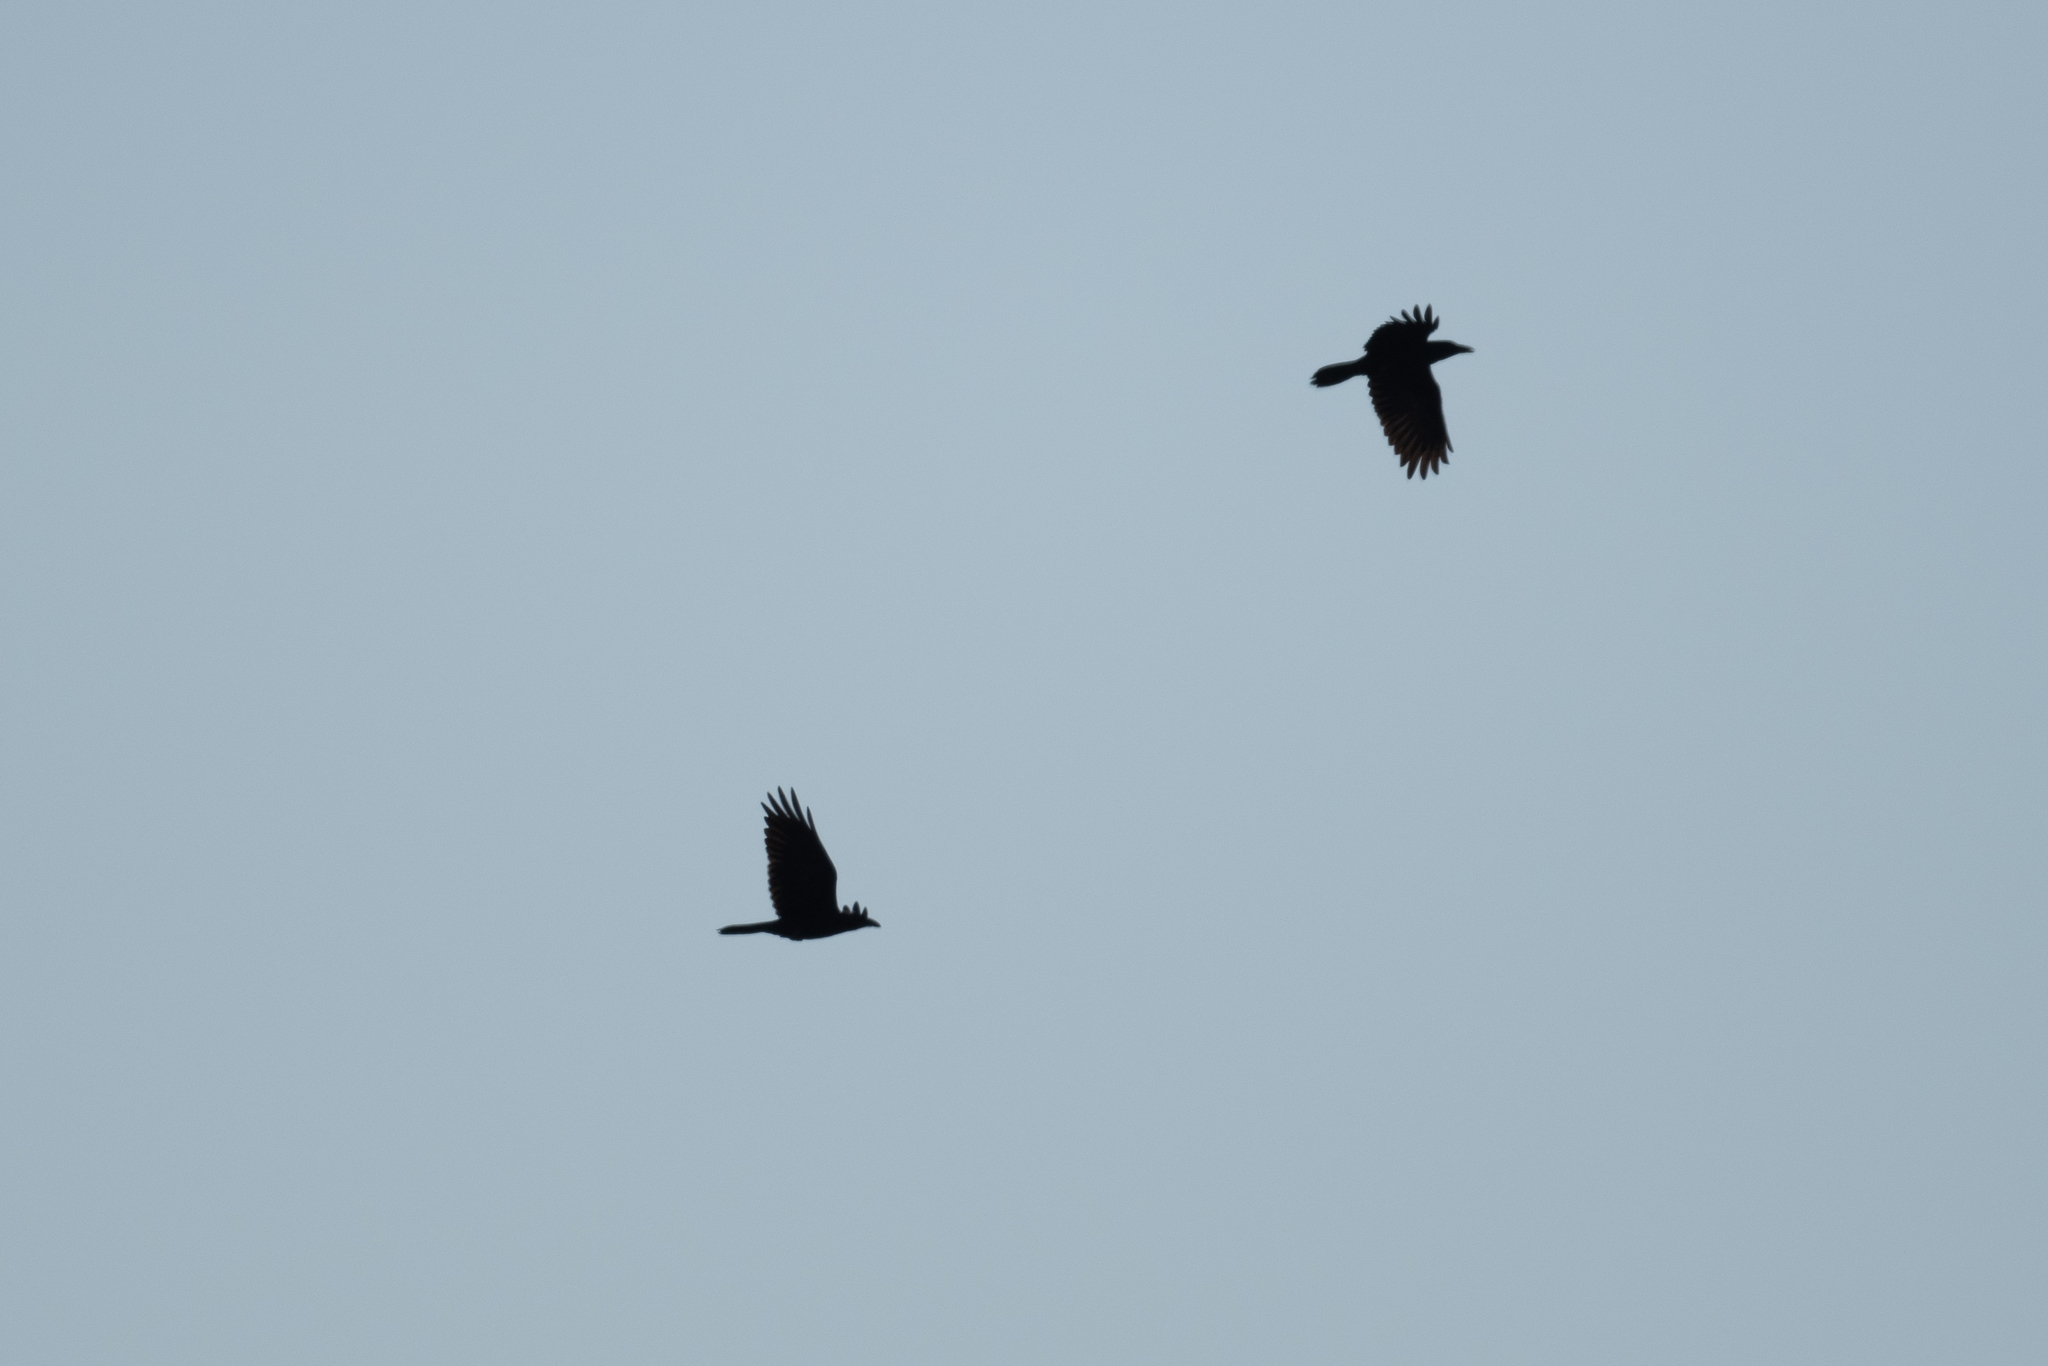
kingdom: Animalia
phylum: Chordata
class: Aves
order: Passeriformes
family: Corvidae
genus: Corvus
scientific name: Corvus corax
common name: Common raven
